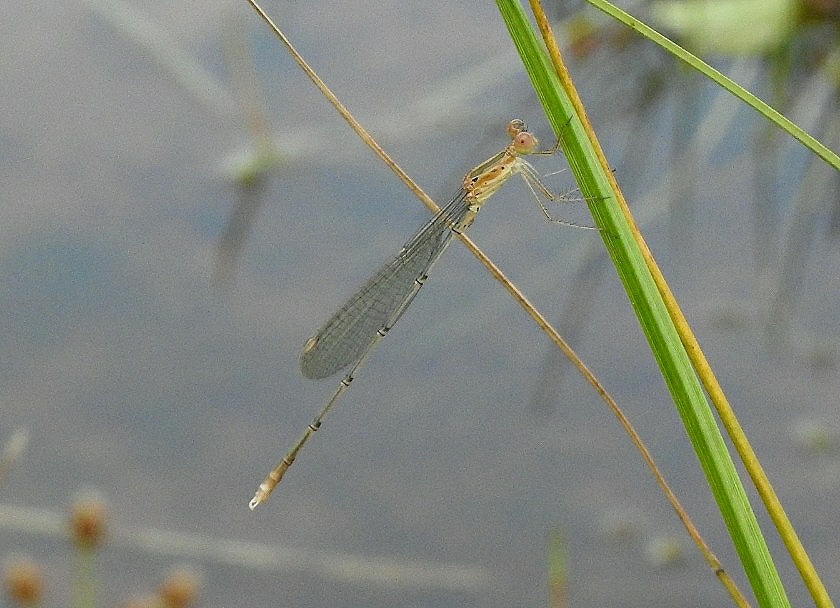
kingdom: Animalia
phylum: Arthropoda
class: Insecta
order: Odonata
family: Lestidae
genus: Lestes
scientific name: Lestes elatus
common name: Emerald spreadwing
